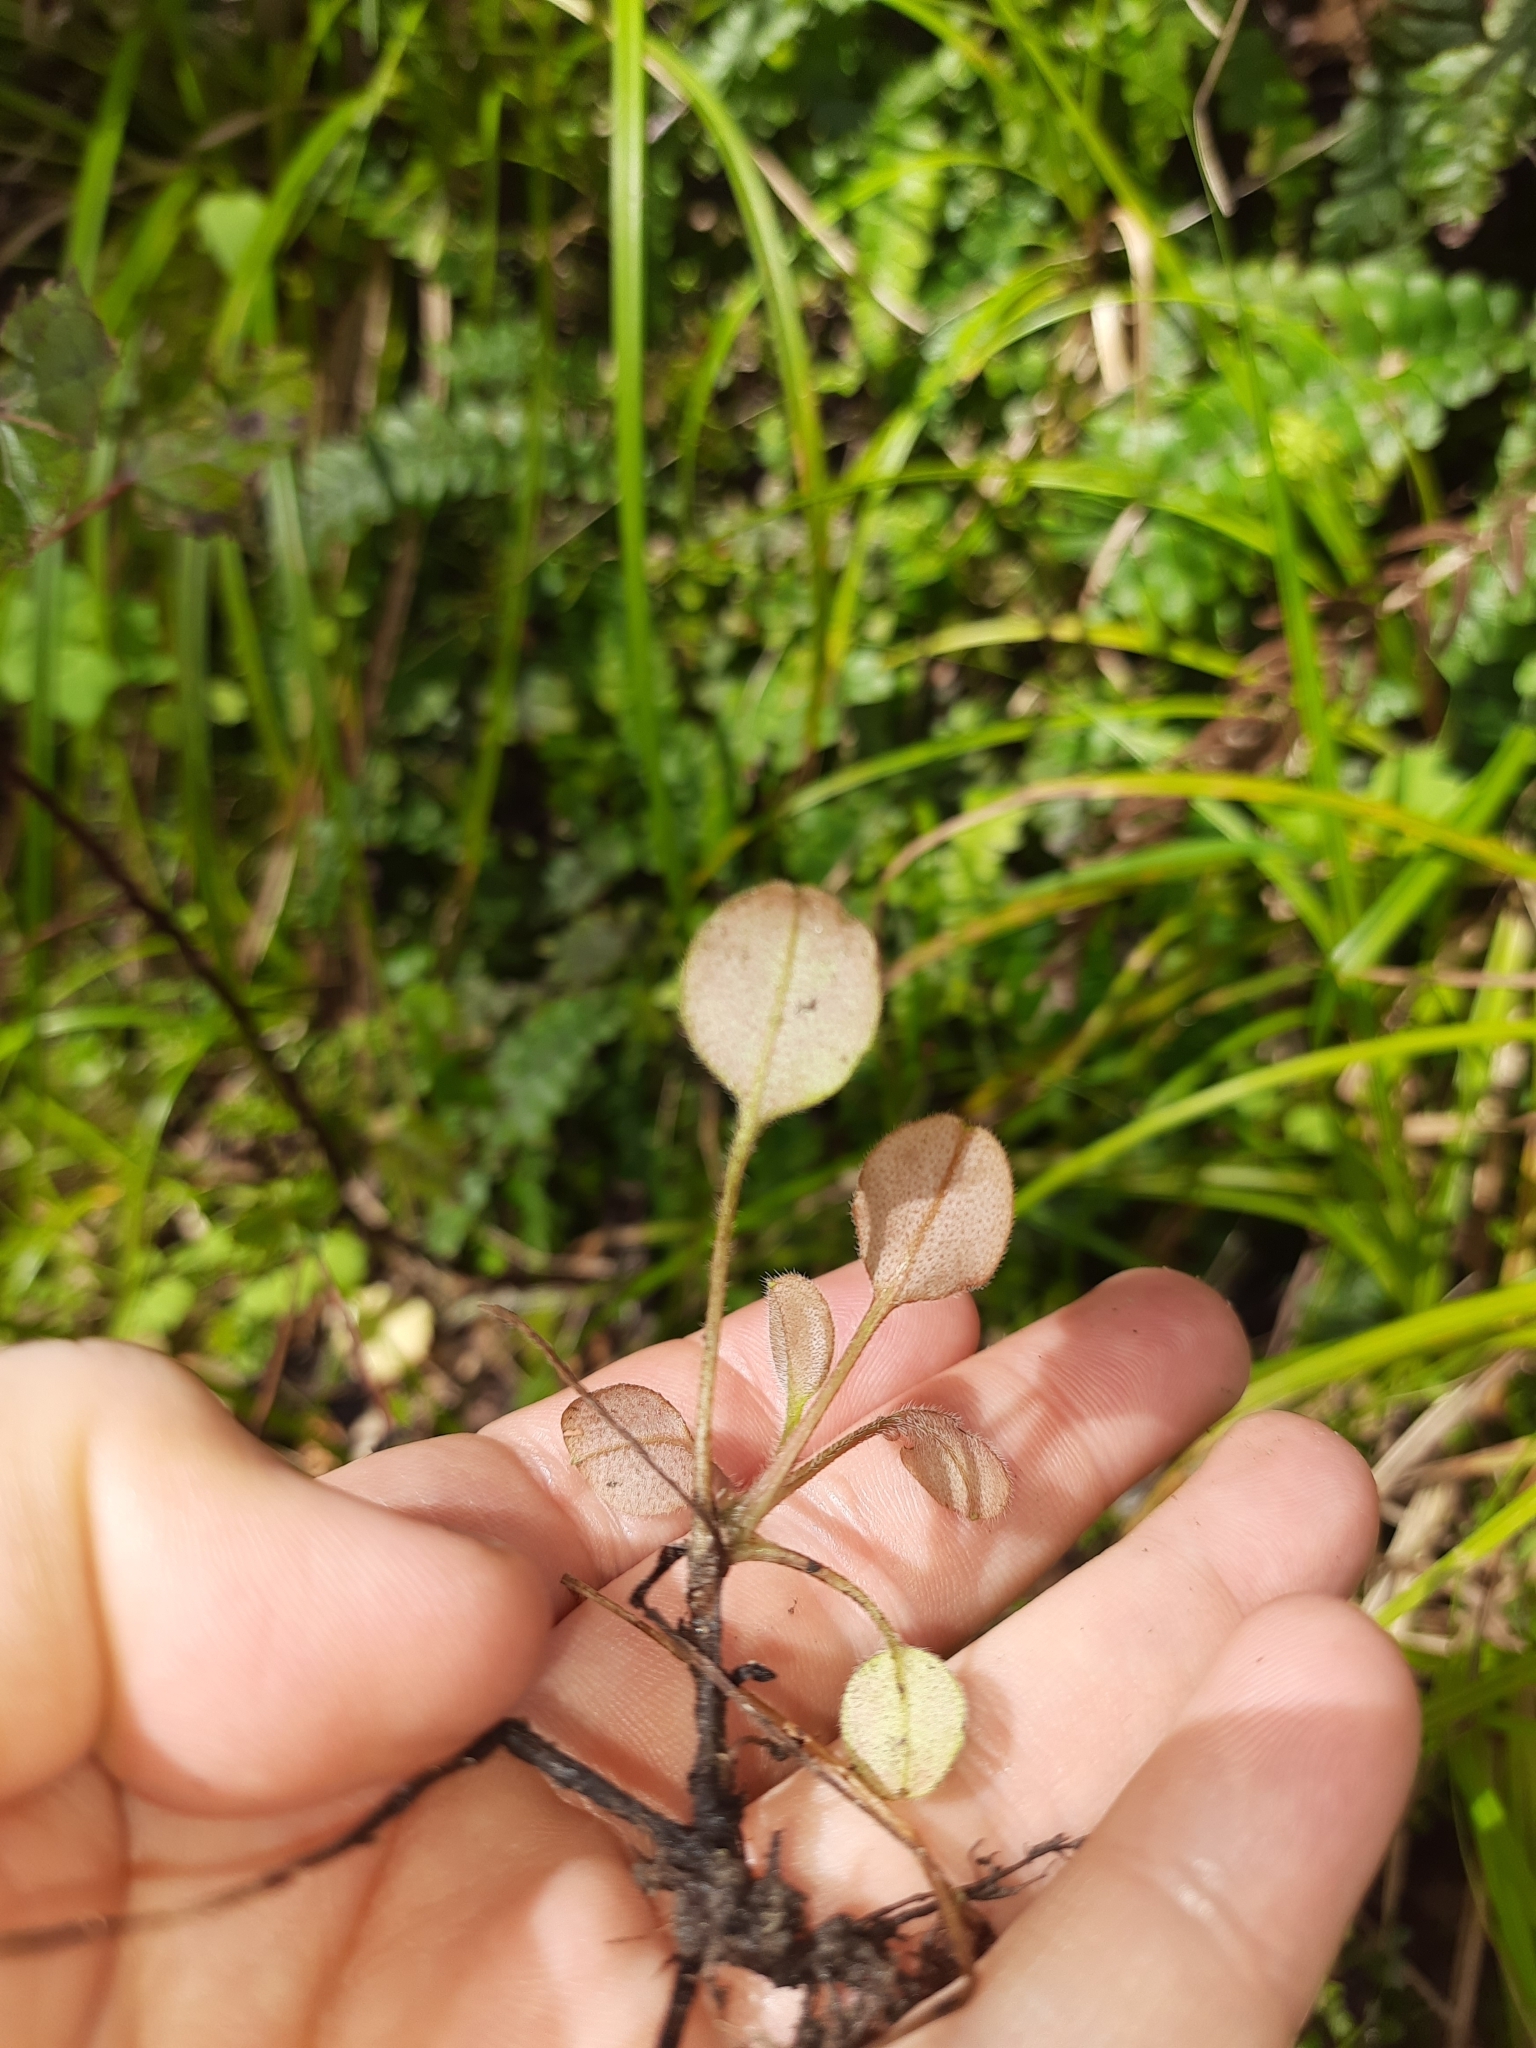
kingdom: Plantae
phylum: Tracheophyta
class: Magnoliopsida
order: Boraginales
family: Boraginaceae
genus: Myosotis
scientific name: Myosotis forsteri
